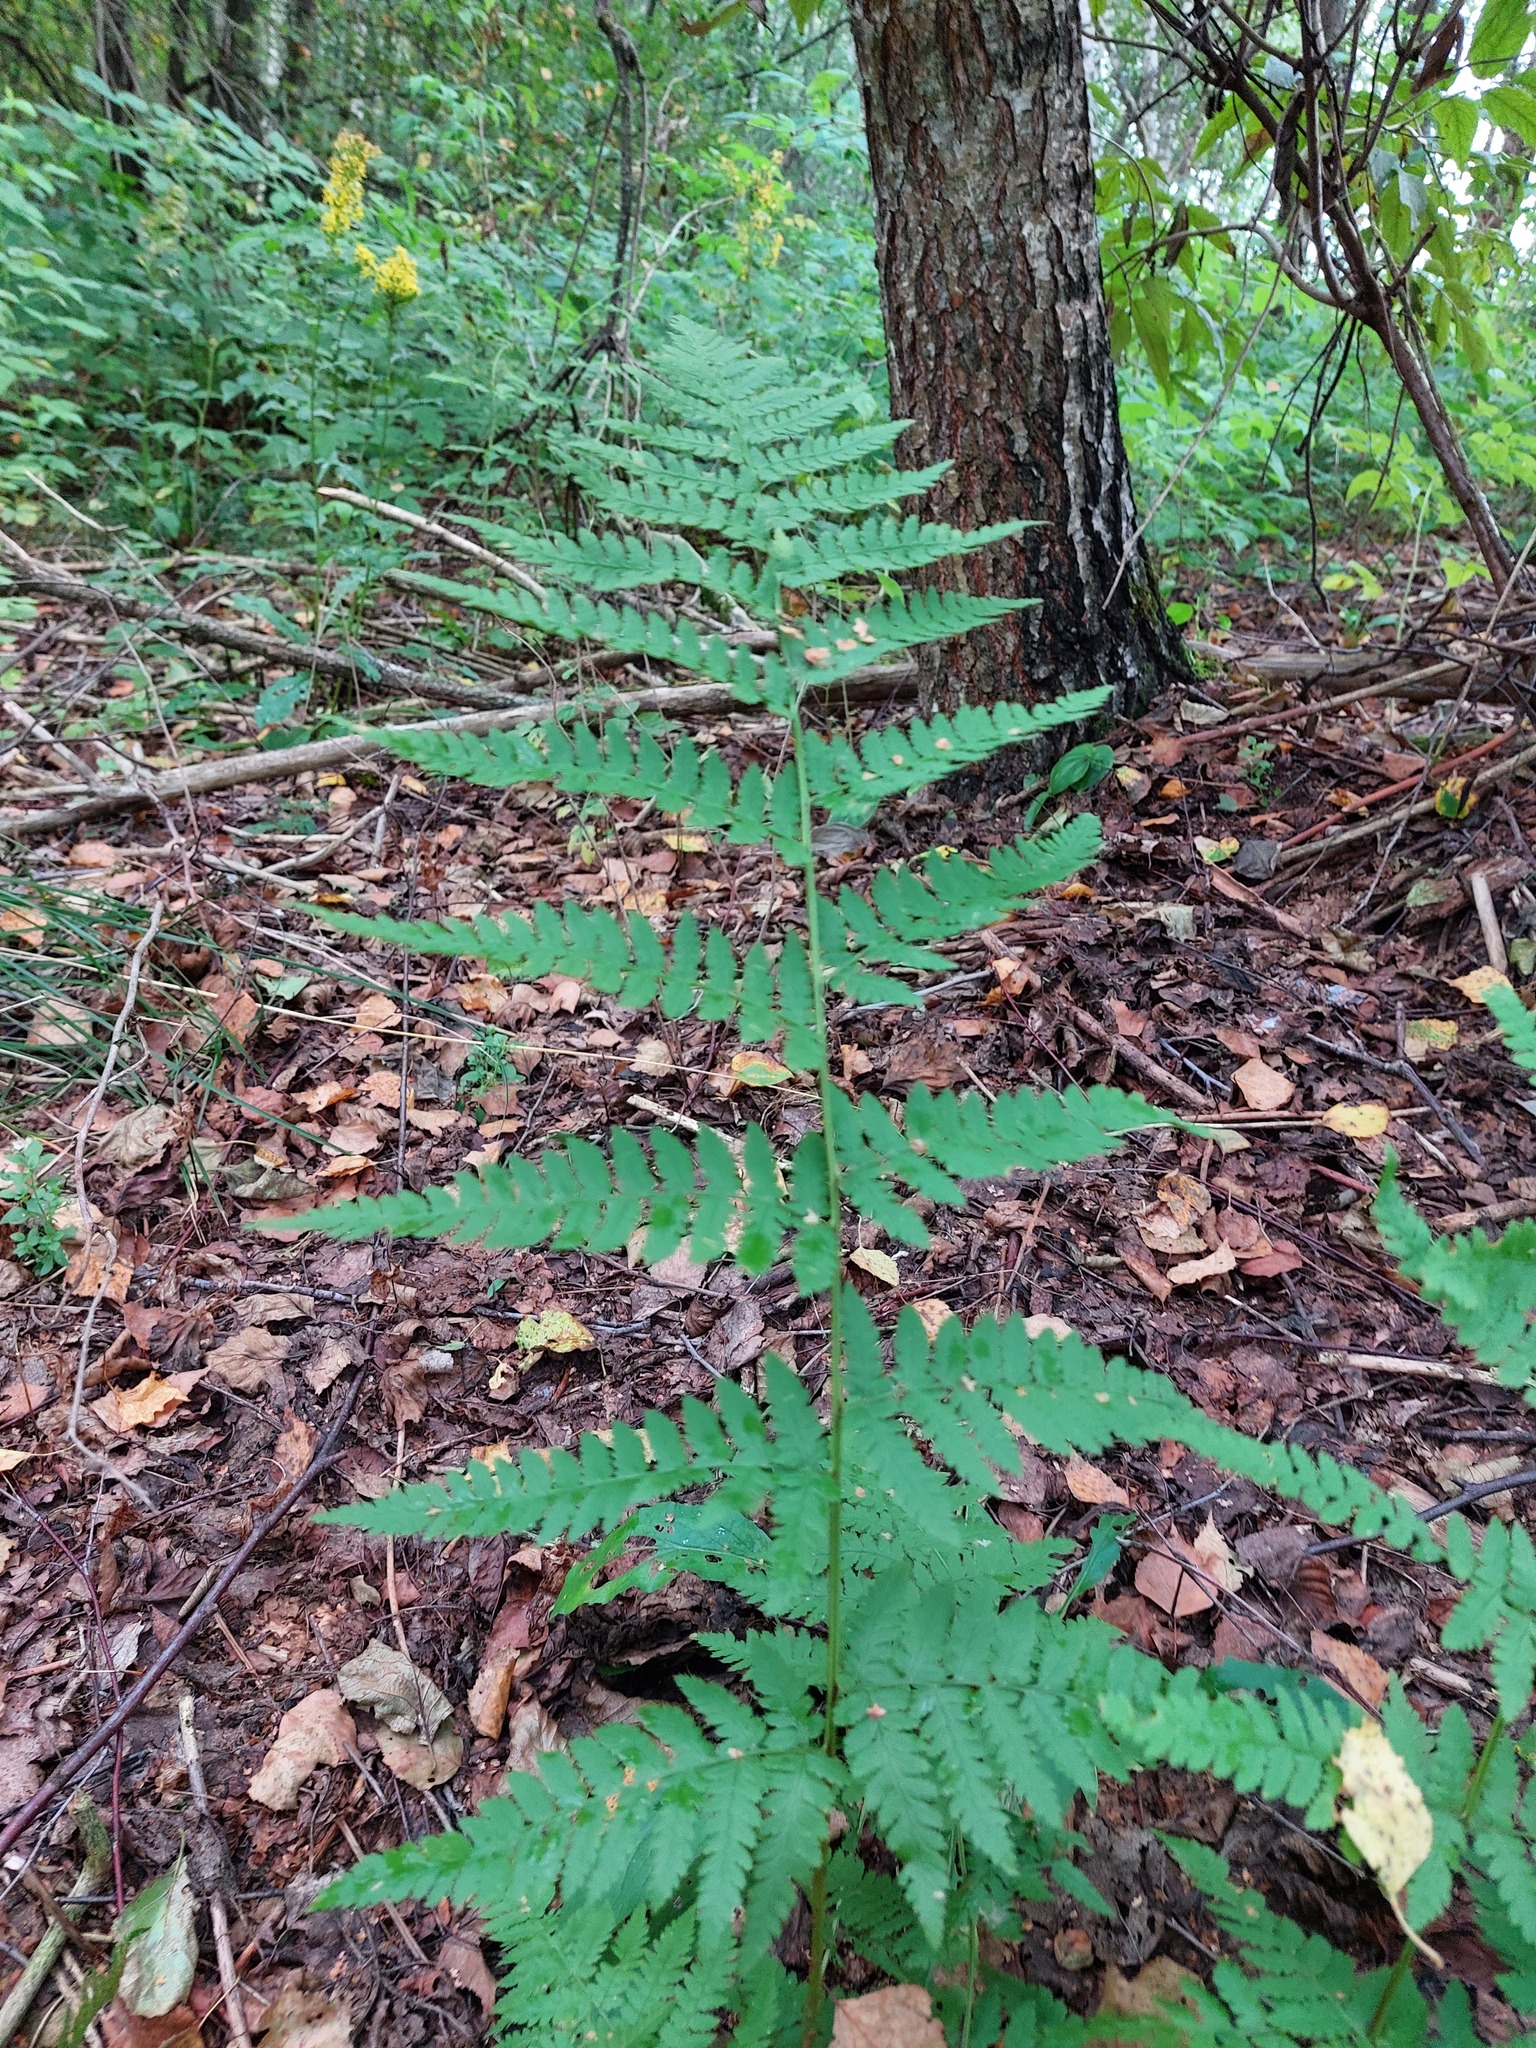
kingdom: Plantae
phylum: Tracheophyta
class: Polypodiopsida
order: Polypodiales
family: Dryopteridaceae
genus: Dryopteris
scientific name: Dryopteris carthusiana
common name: Narrow buckler-fern
